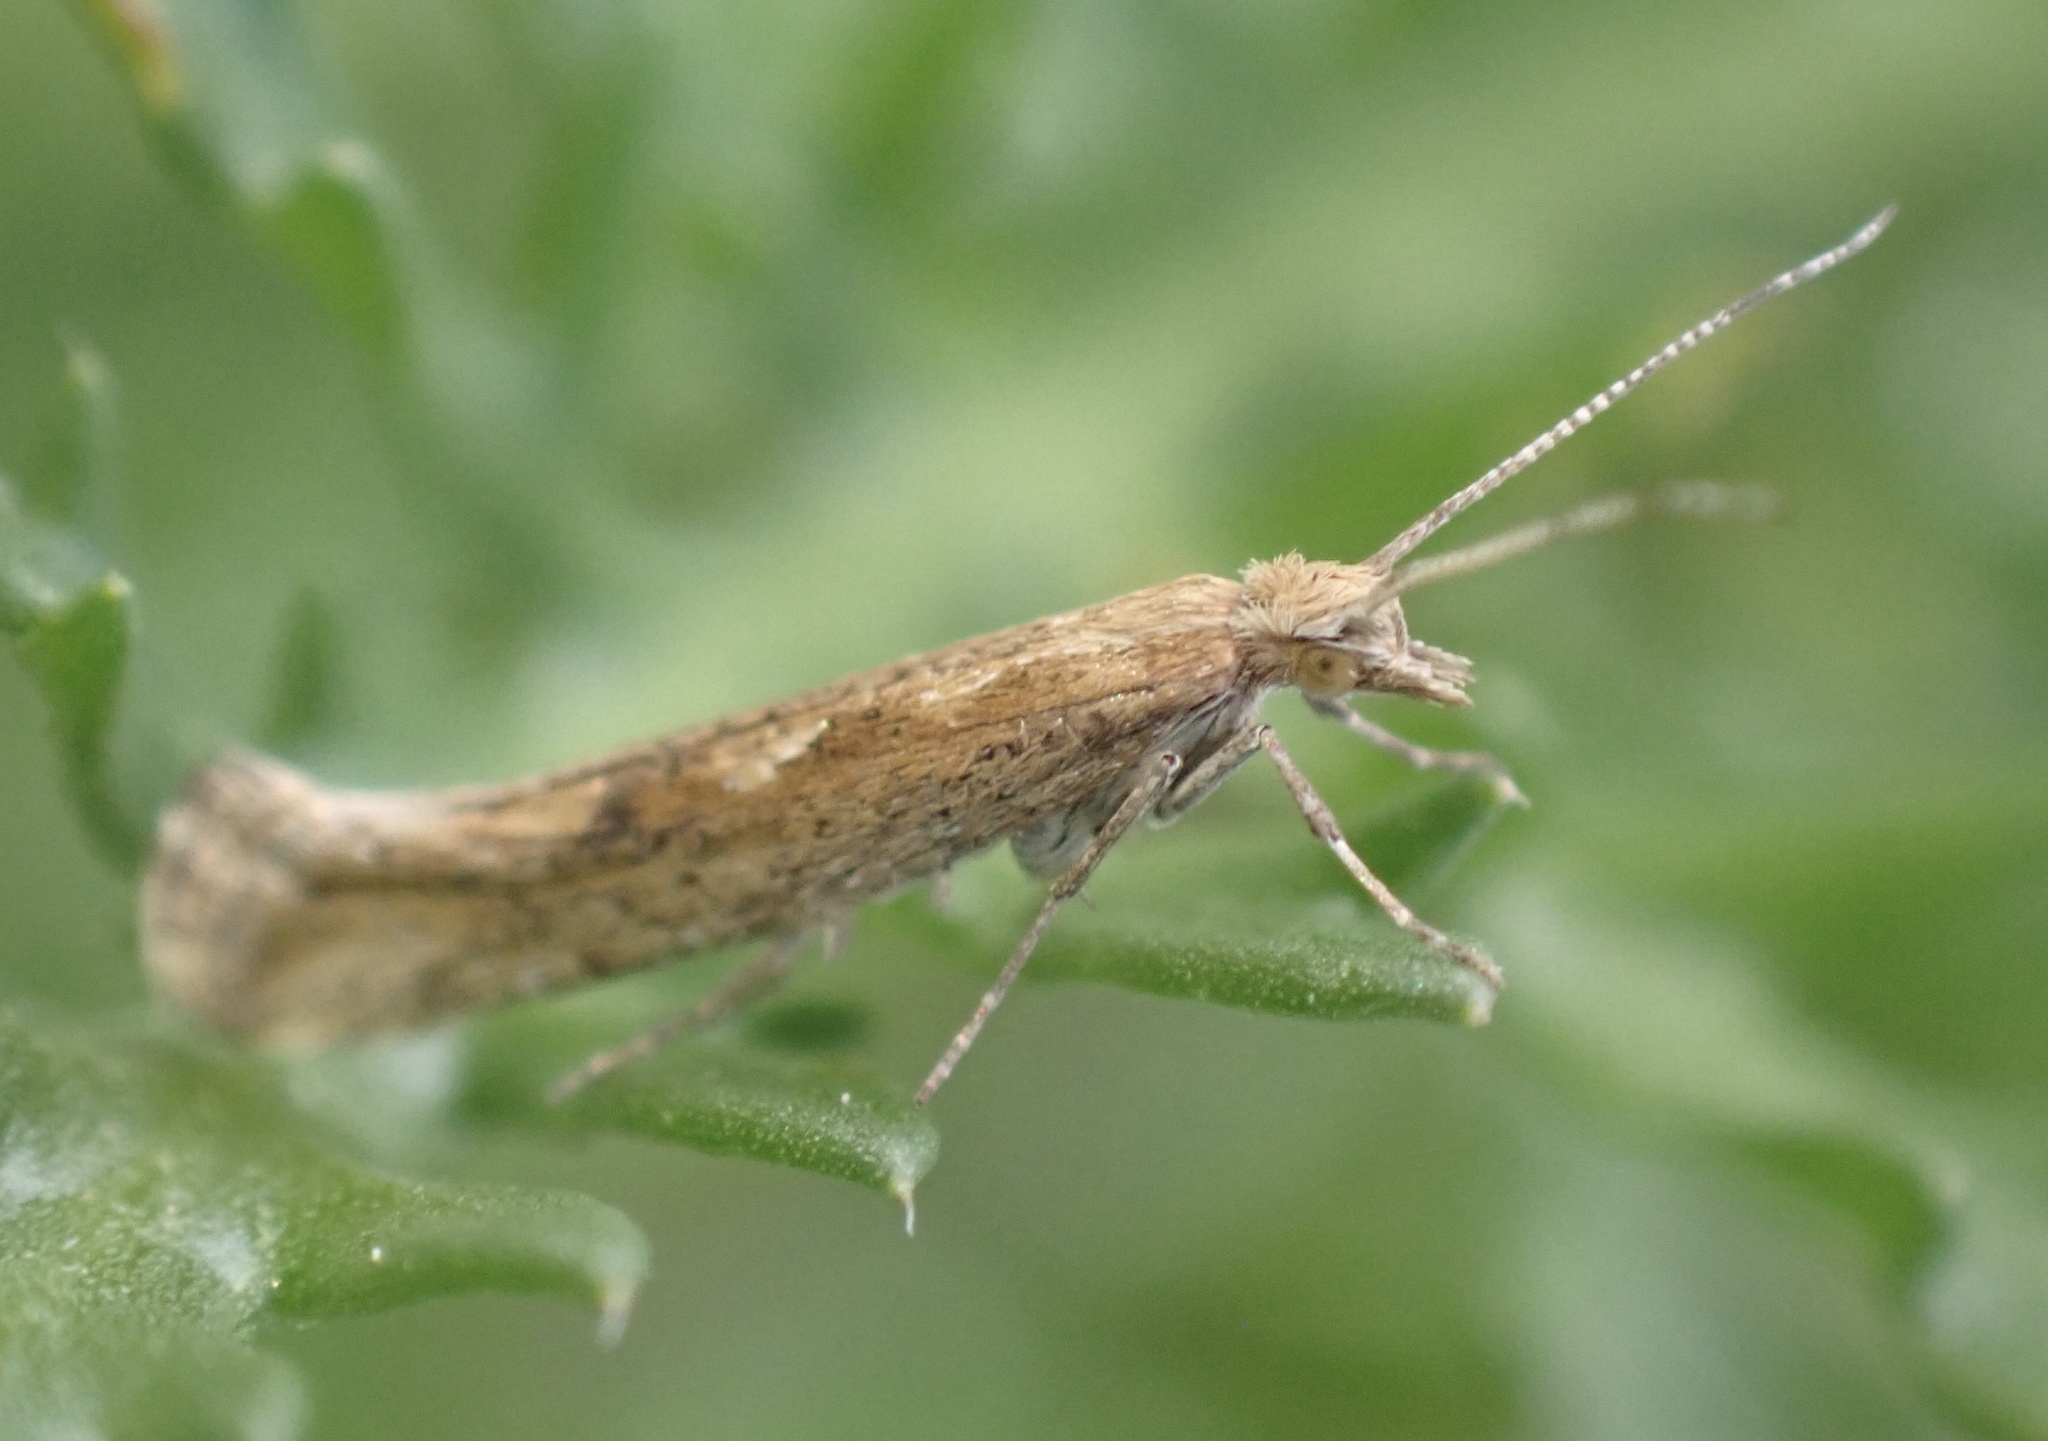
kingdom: Animalia
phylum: Arthropoda
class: Insecta
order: Lepidoptera
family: Plutellidae
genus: Plutella
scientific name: Plutella xylostella
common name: Diamond-back moth
